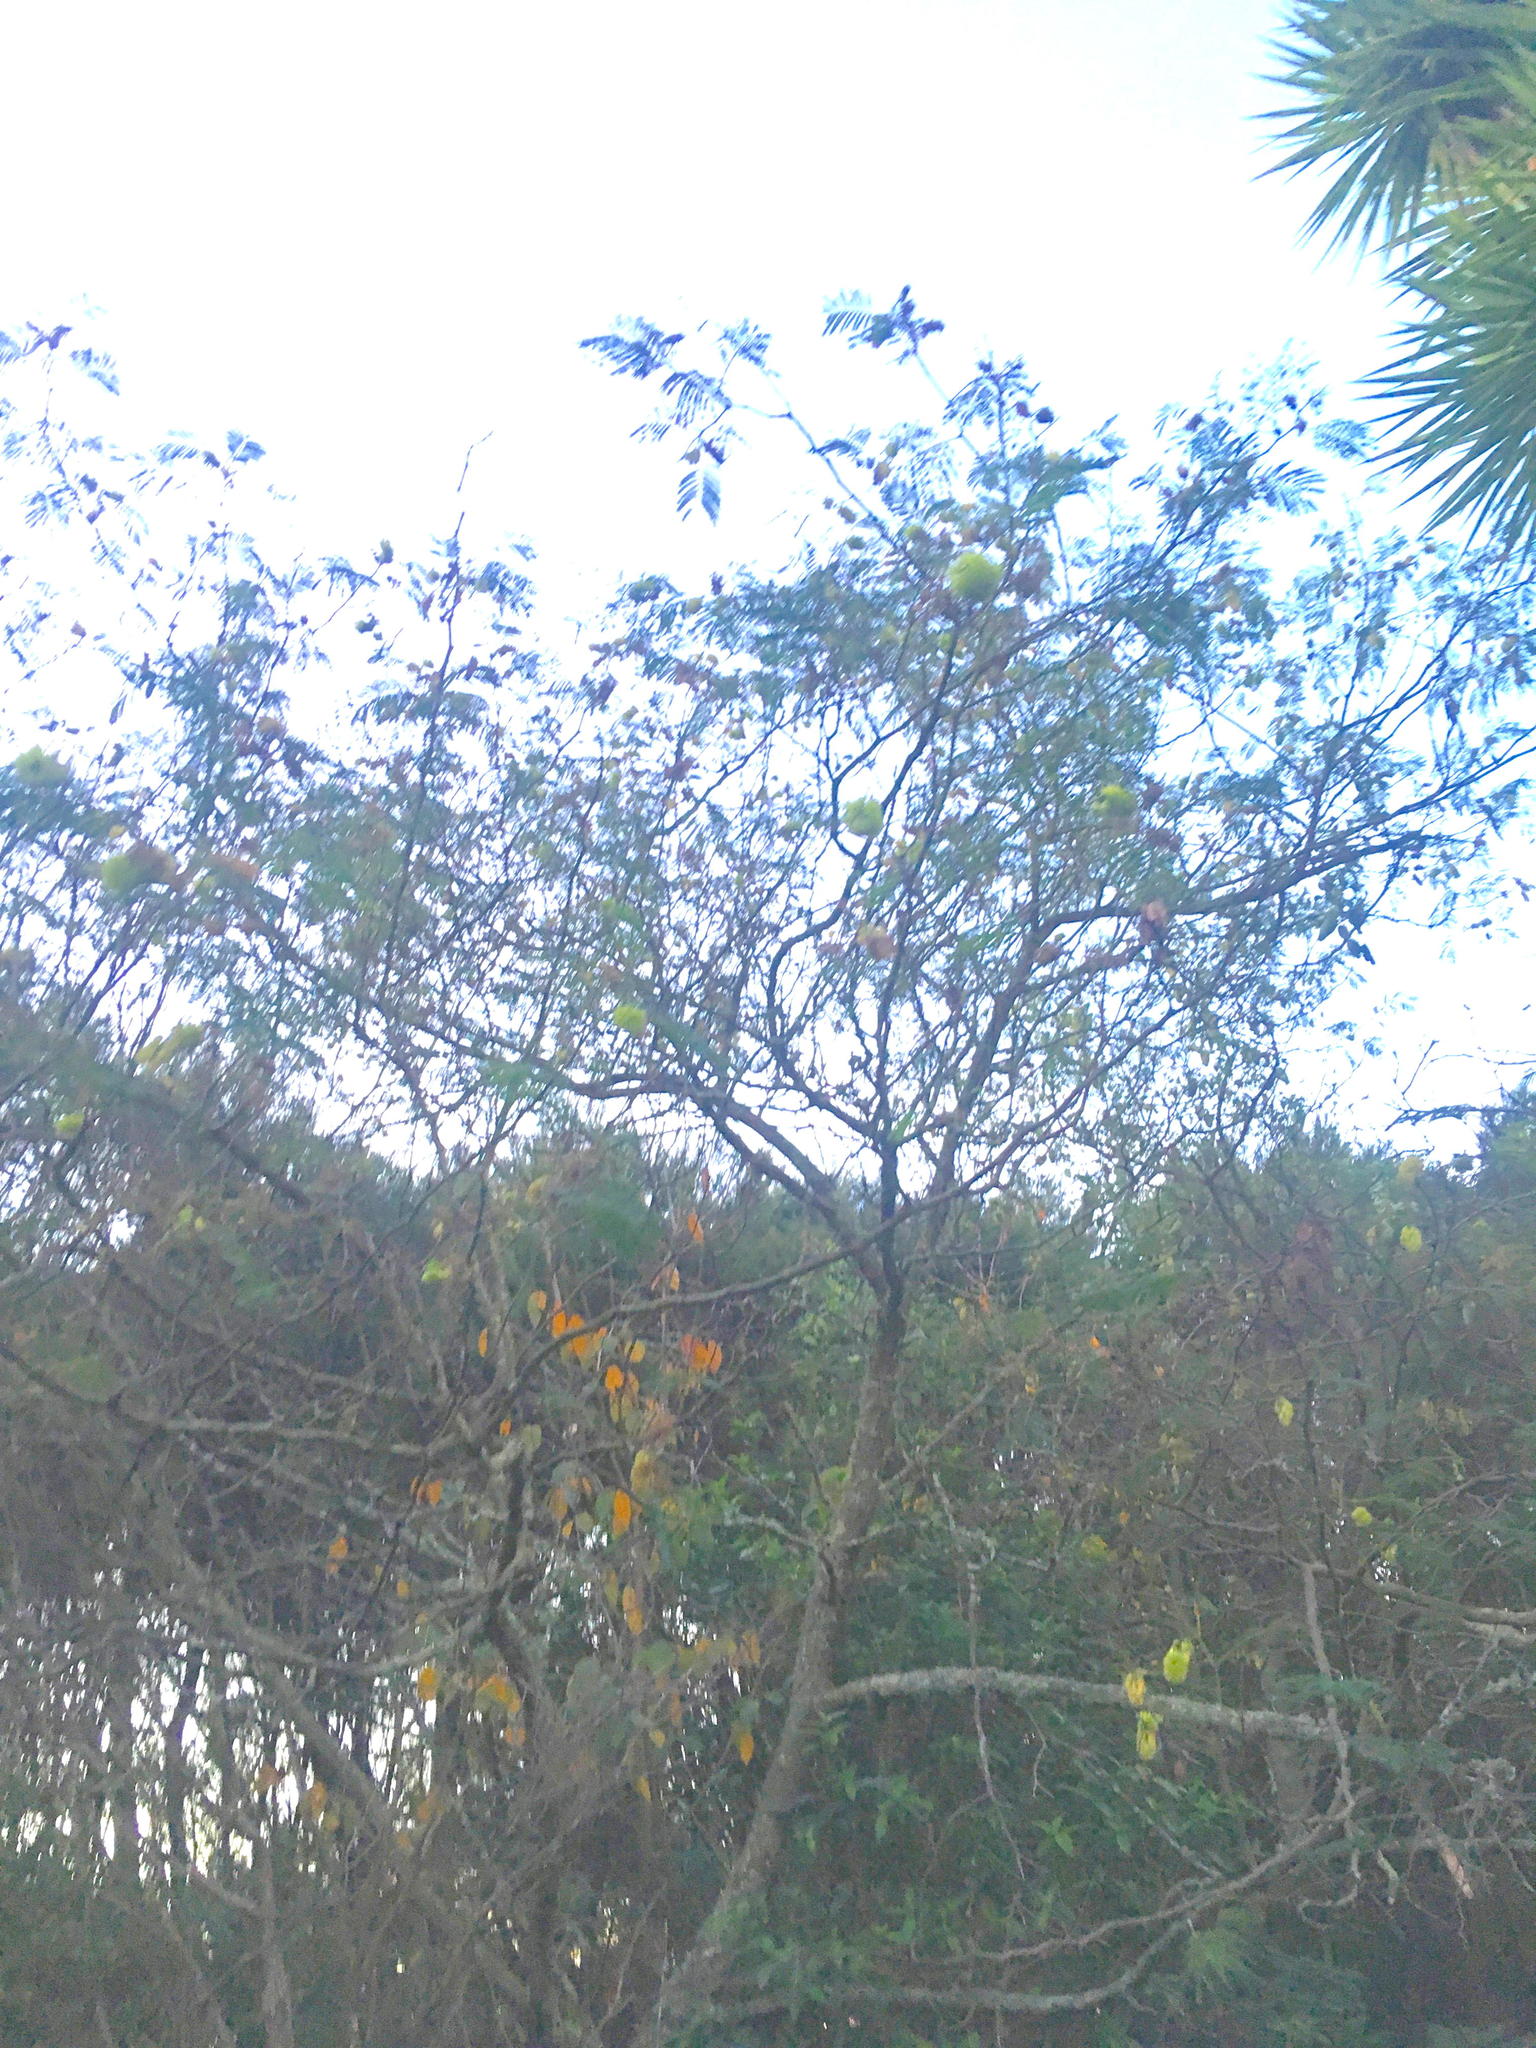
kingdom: Plantae
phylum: Tracheophyta
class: Magnoliopsida
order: Fabales
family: Fabaceae
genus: Paraserianthes
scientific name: Paraserianthes lophantha
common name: Plume albizia
